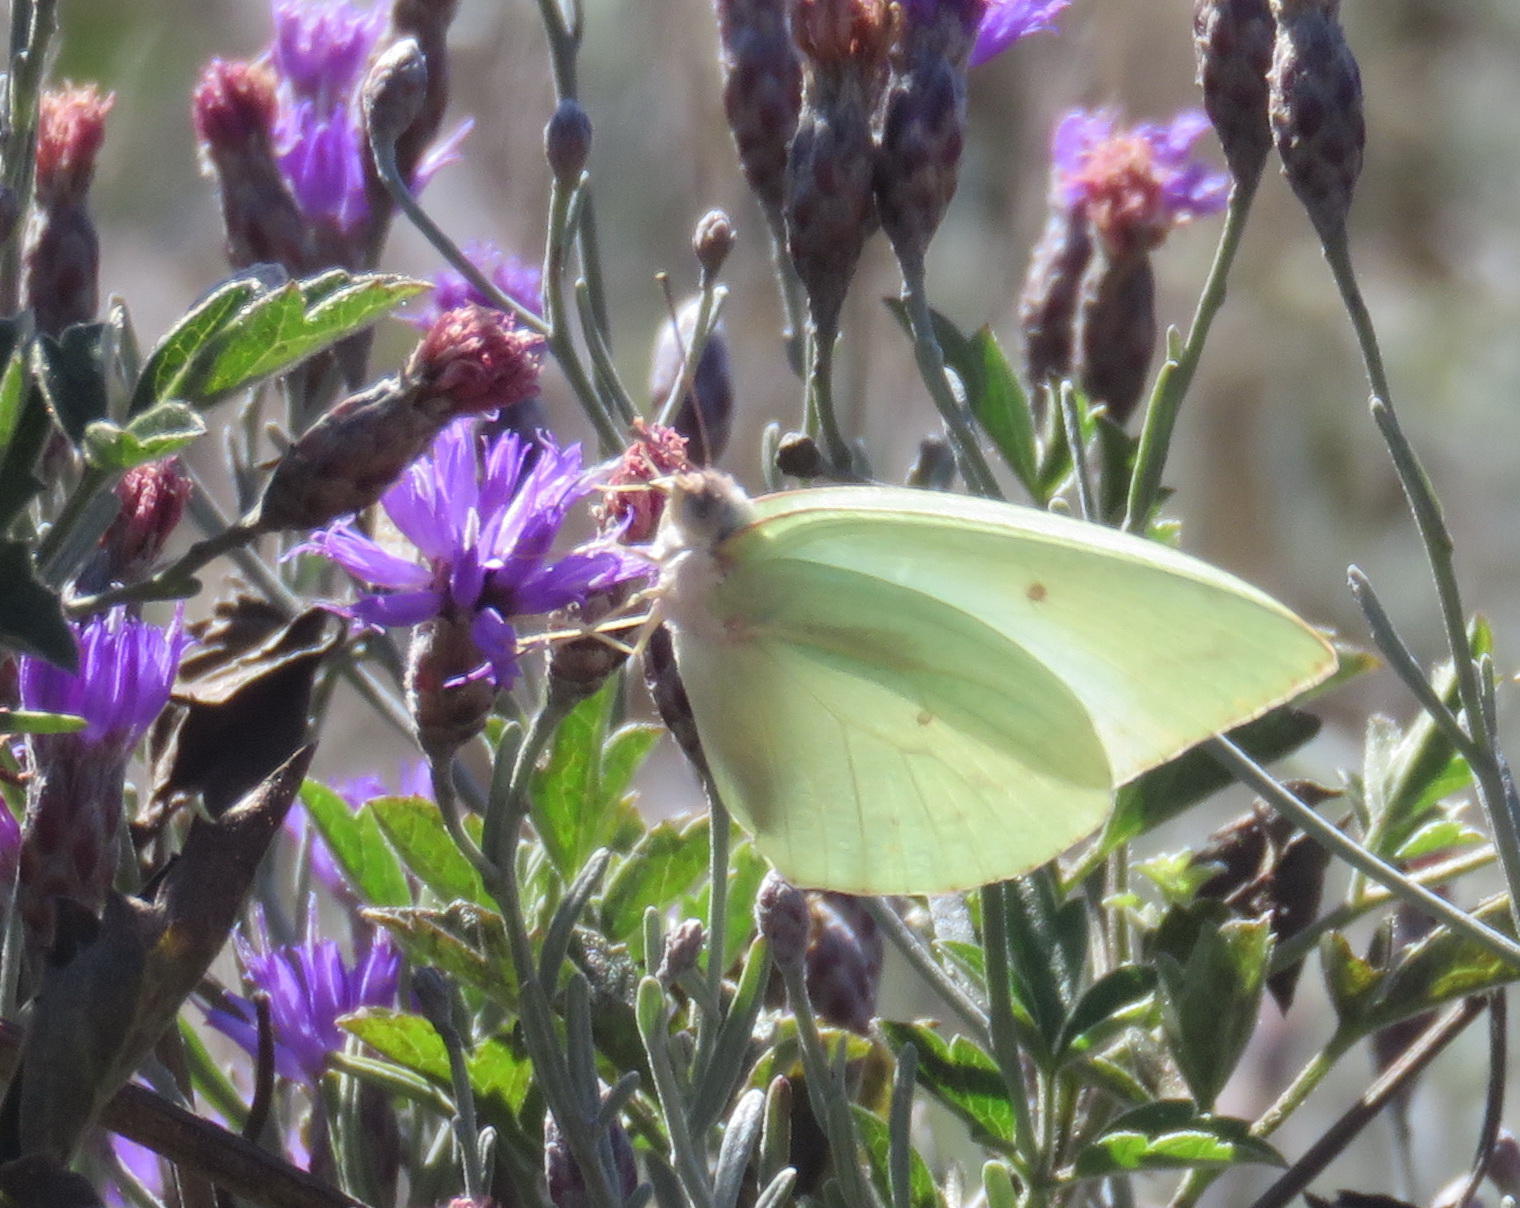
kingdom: Animalia
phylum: Arthropoda
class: Insecta
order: Lepidoptera
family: Pieridae
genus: Catopsilia
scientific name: Catopsilia florella
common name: African migrant
